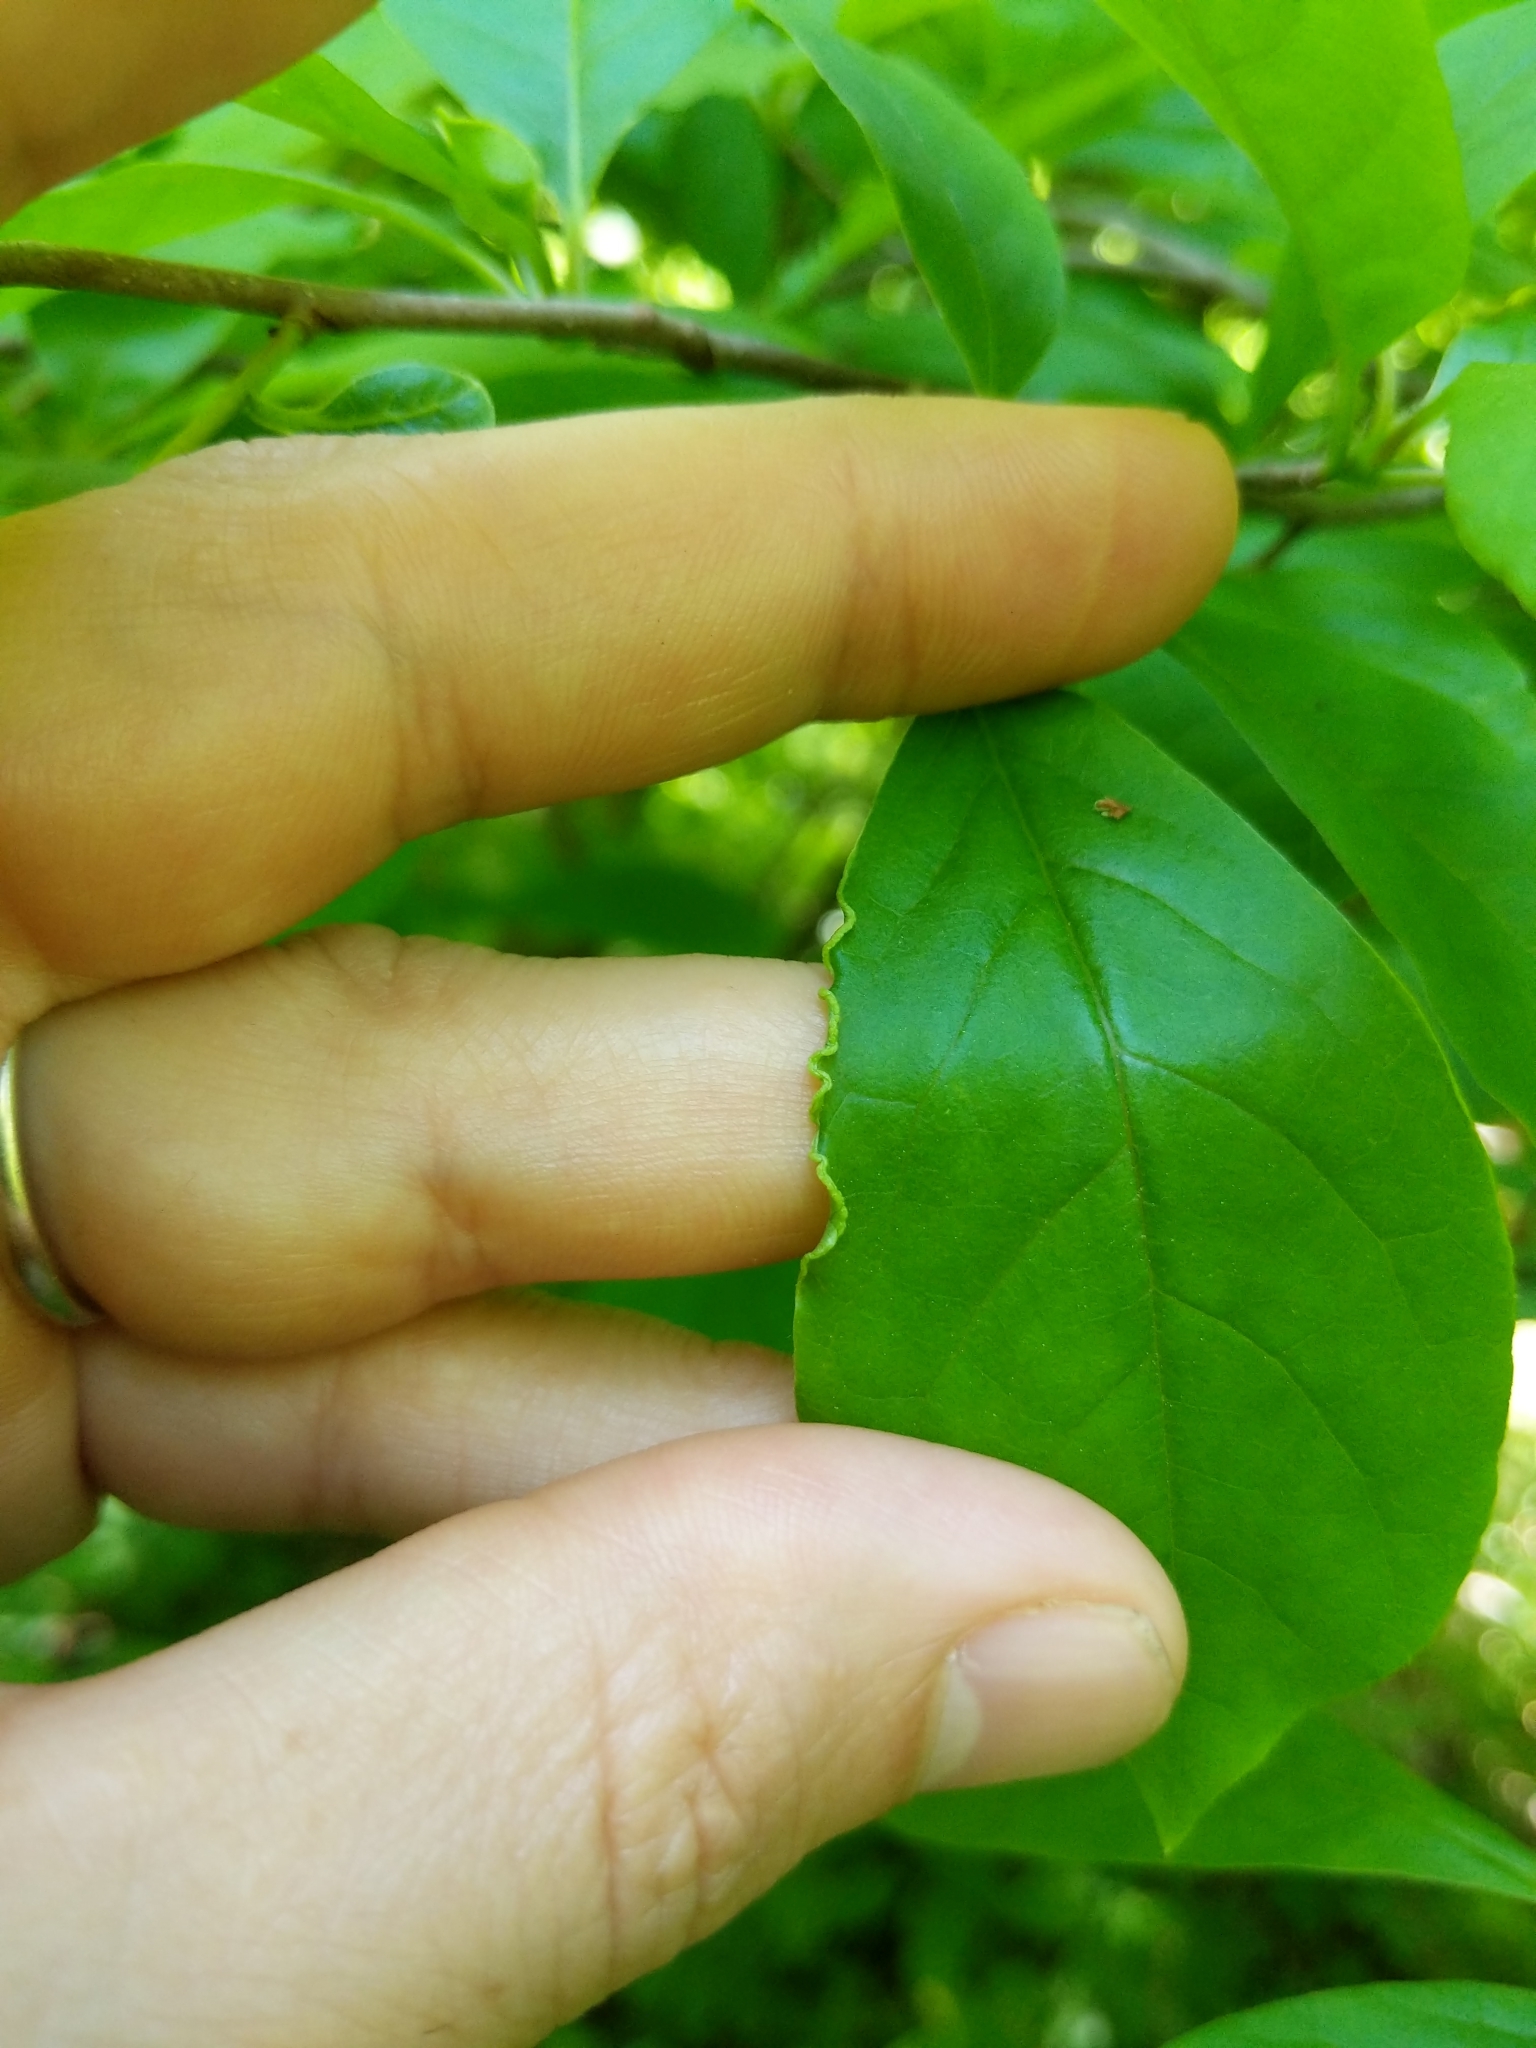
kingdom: Animalia
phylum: Arthropoda
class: Arachnida
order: Trombidiformes
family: Eriophyidae
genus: Aceria
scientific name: Aceria
